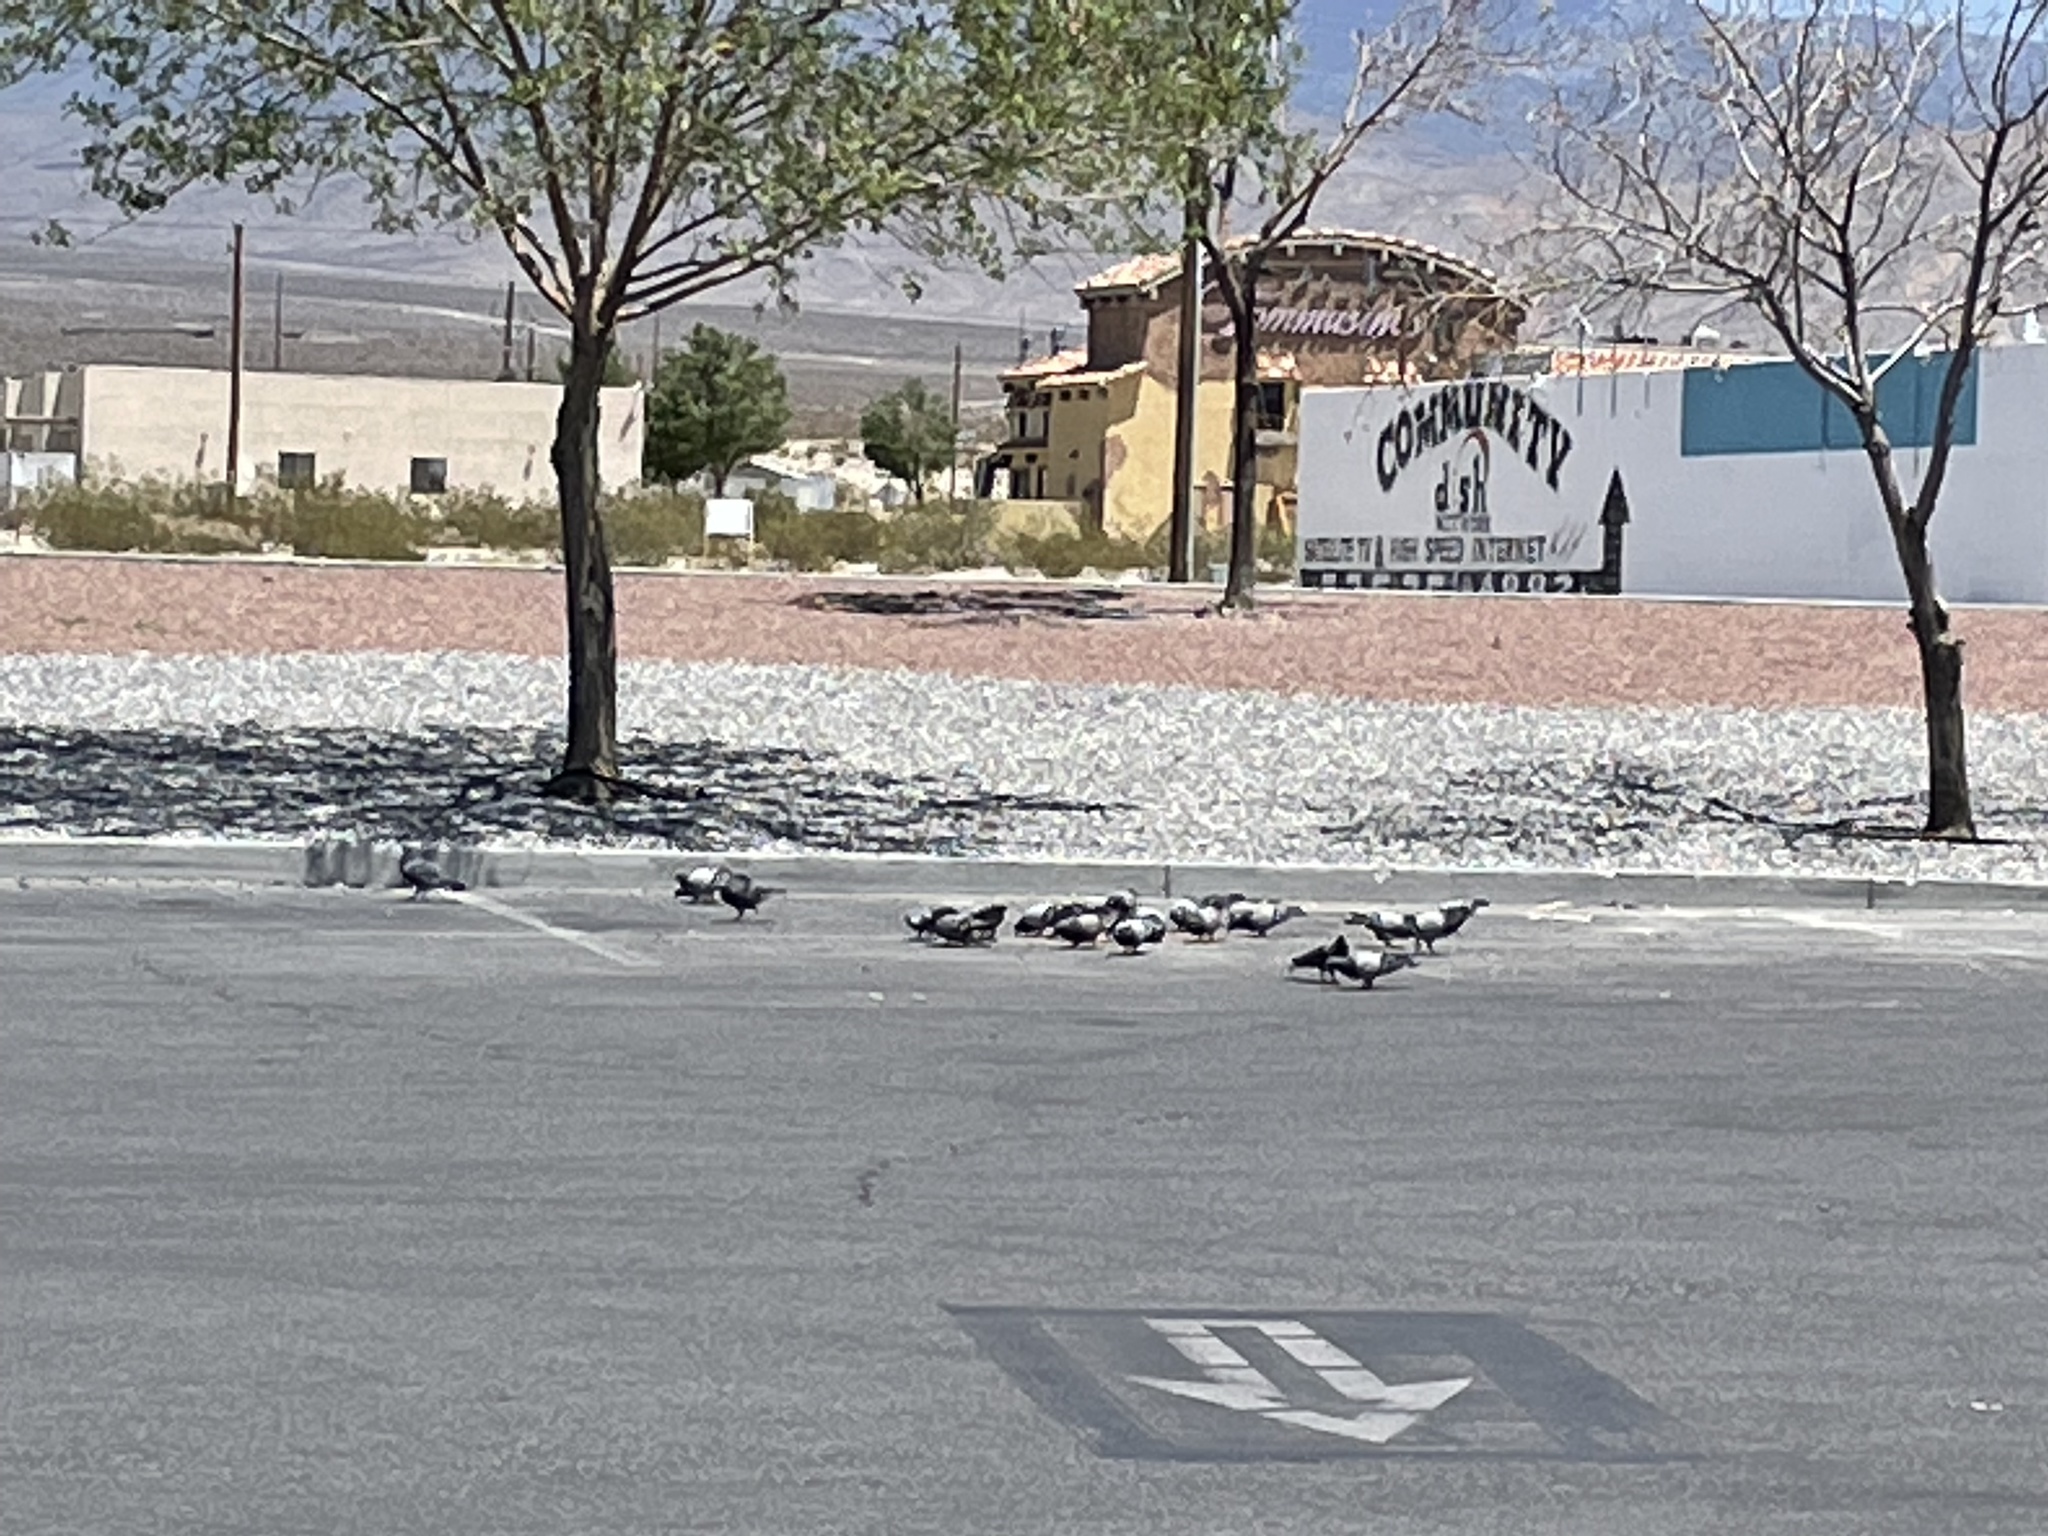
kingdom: Animalia
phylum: Chordata
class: Aves
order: Columbiformes
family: Columbidae
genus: Columba
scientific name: Columba livia
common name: Rock pigeon
